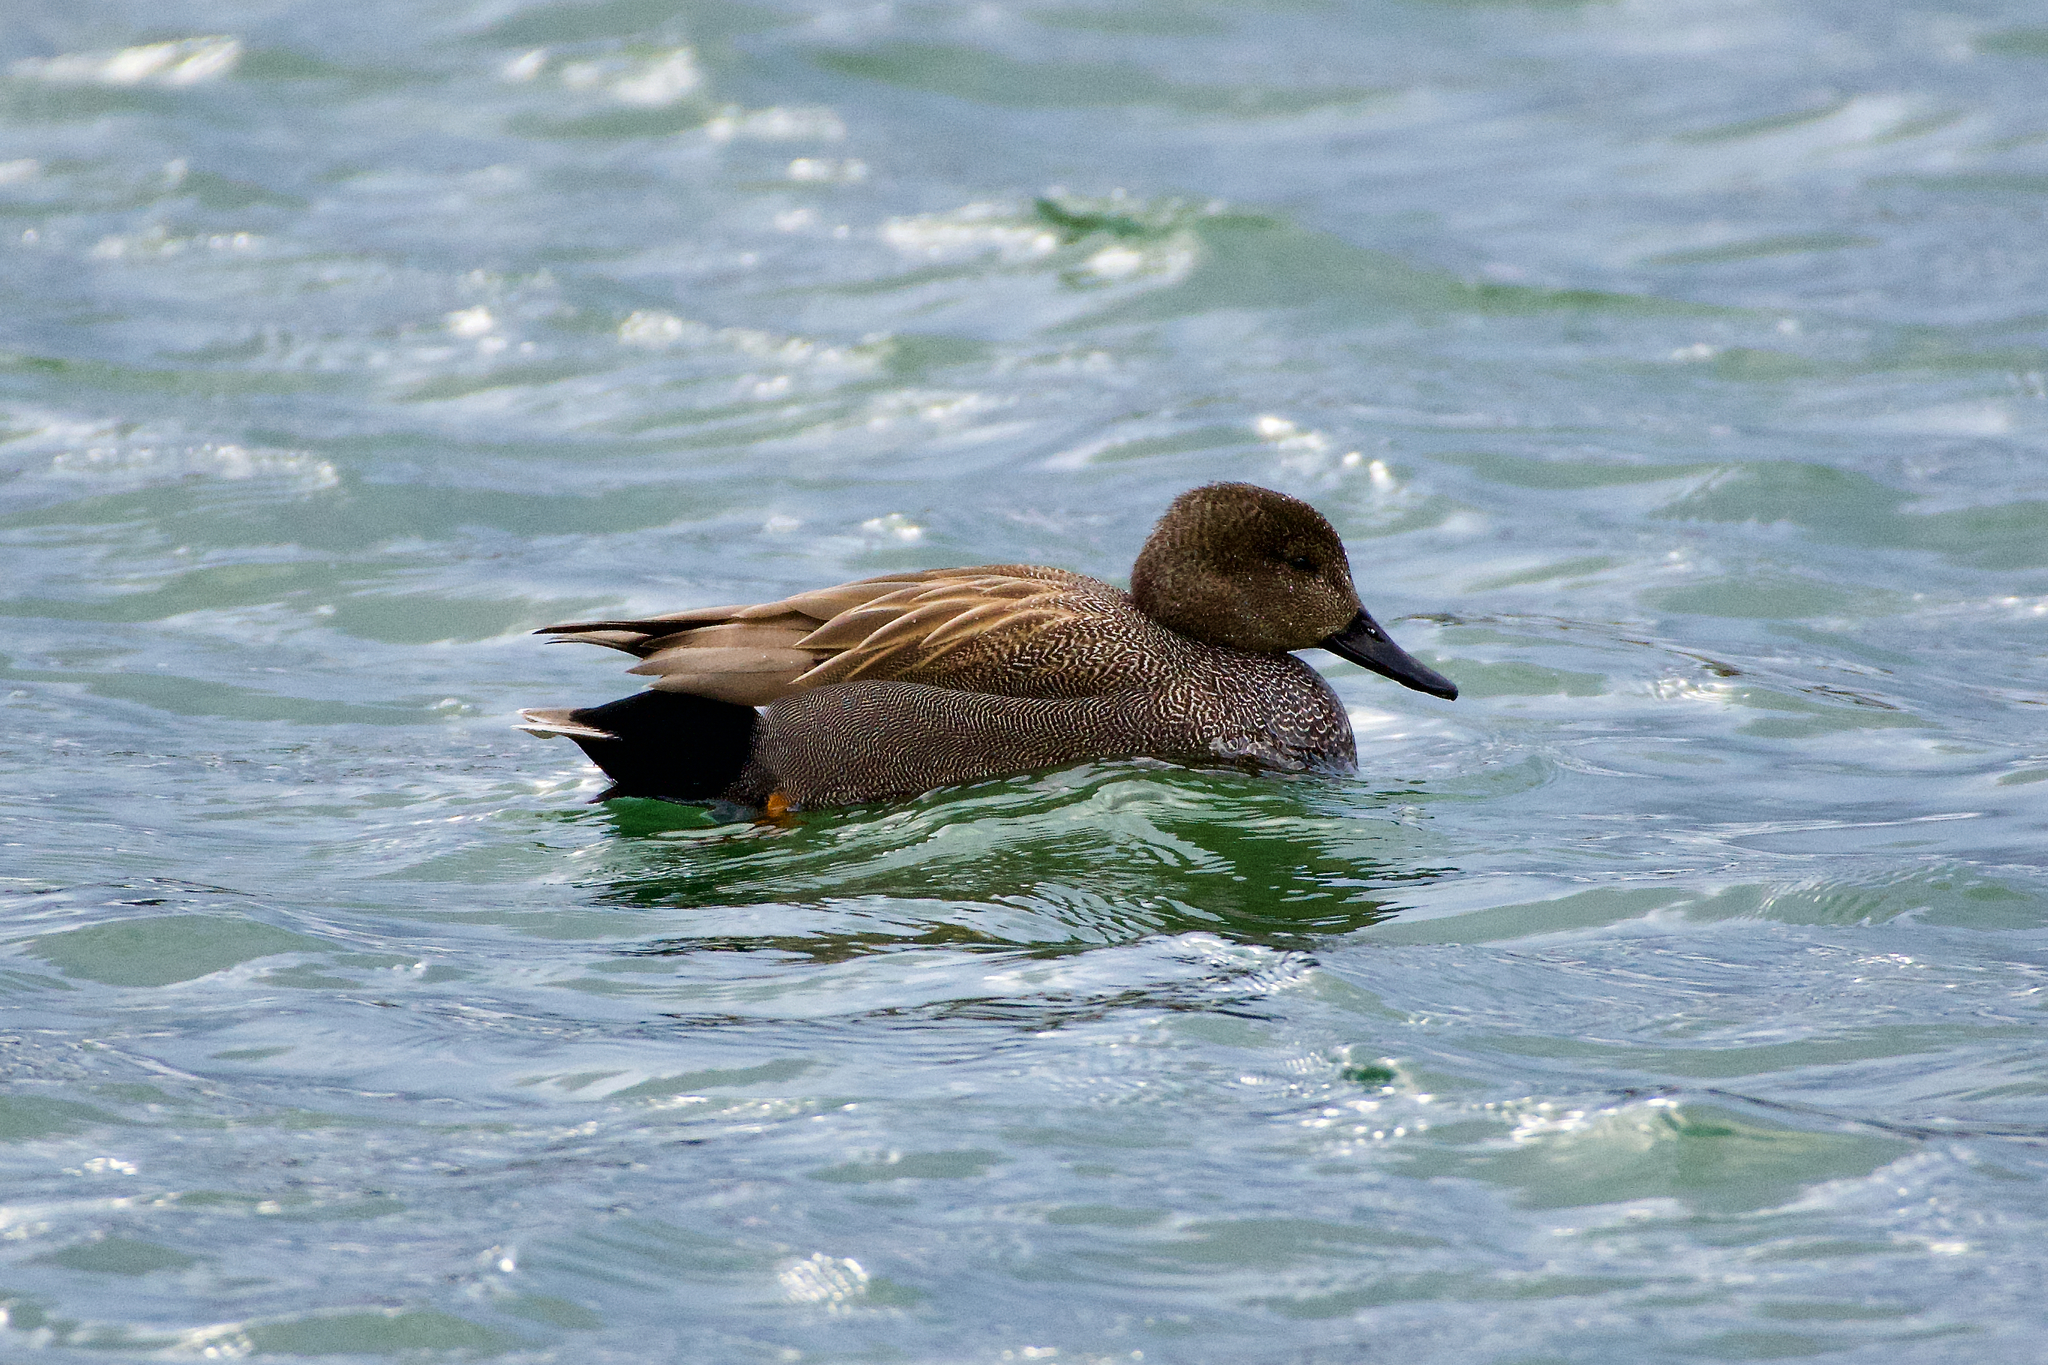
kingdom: Animalia
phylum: Chordata
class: Aves
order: Anseriformes
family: Anatidae
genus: Mareca
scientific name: Mareca strepera
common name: Gadwall
